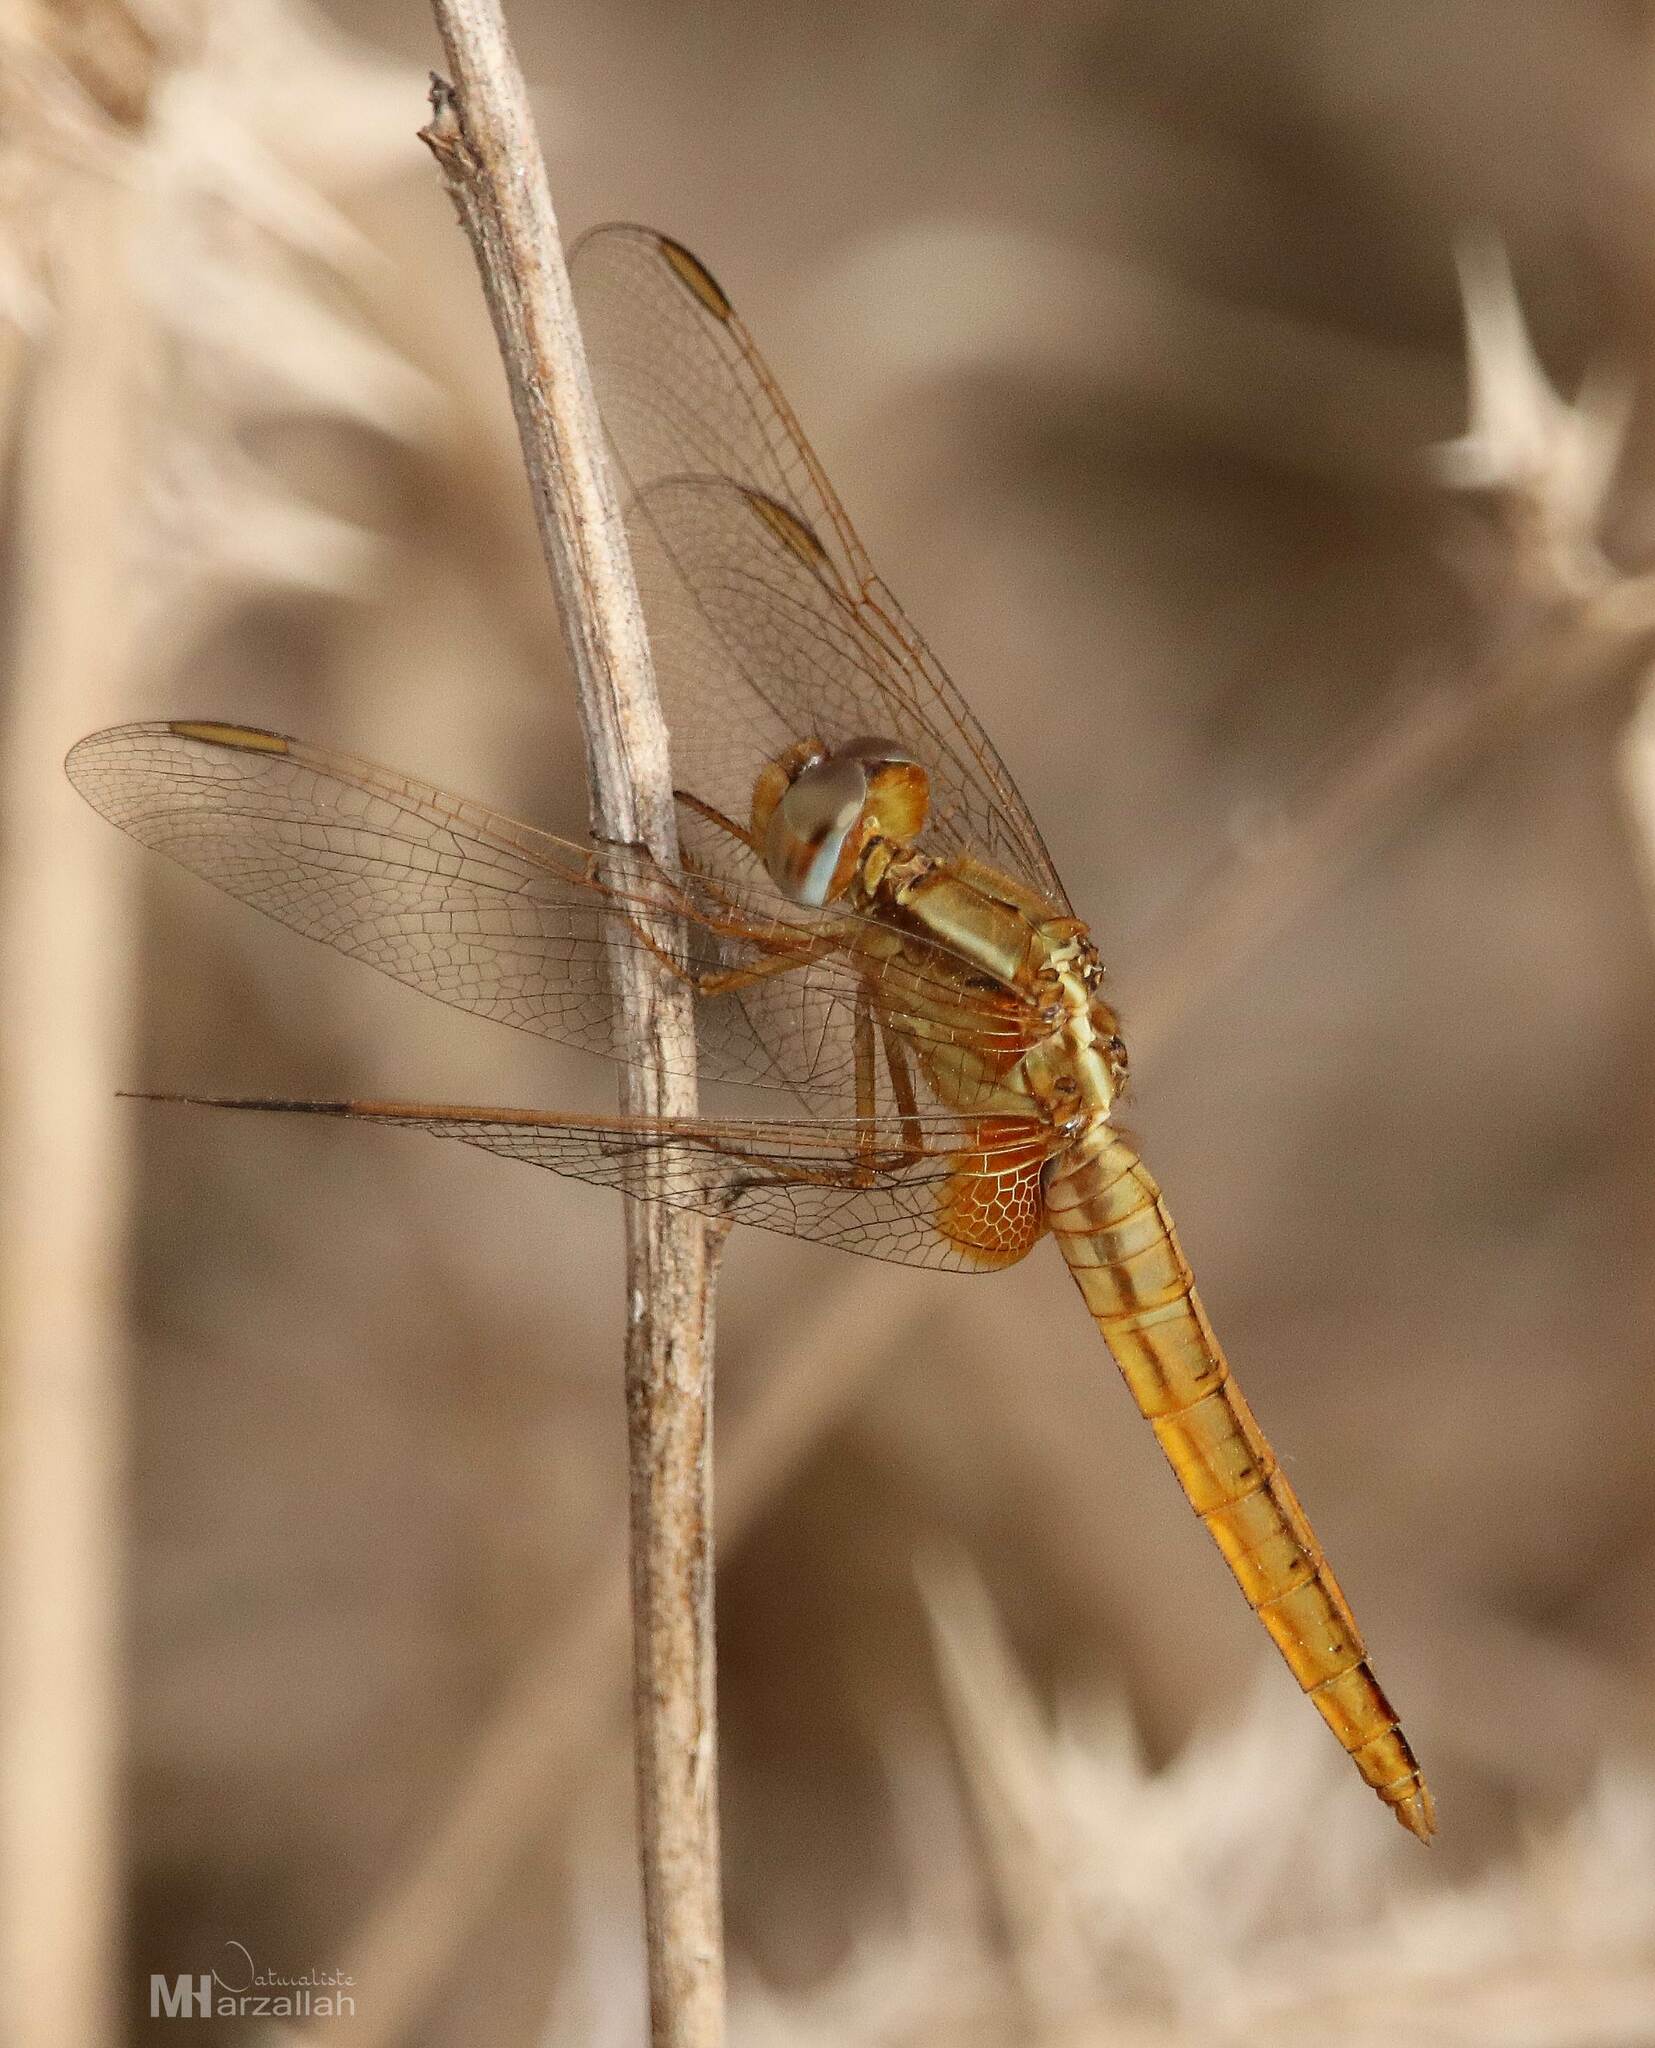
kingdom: Animalia
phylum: Arthropoda
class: Insecta
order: Odonata
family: Libellulidae
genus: Crocothemis
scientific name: Crocothemis erythraea
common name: Scarlet dragonfly
